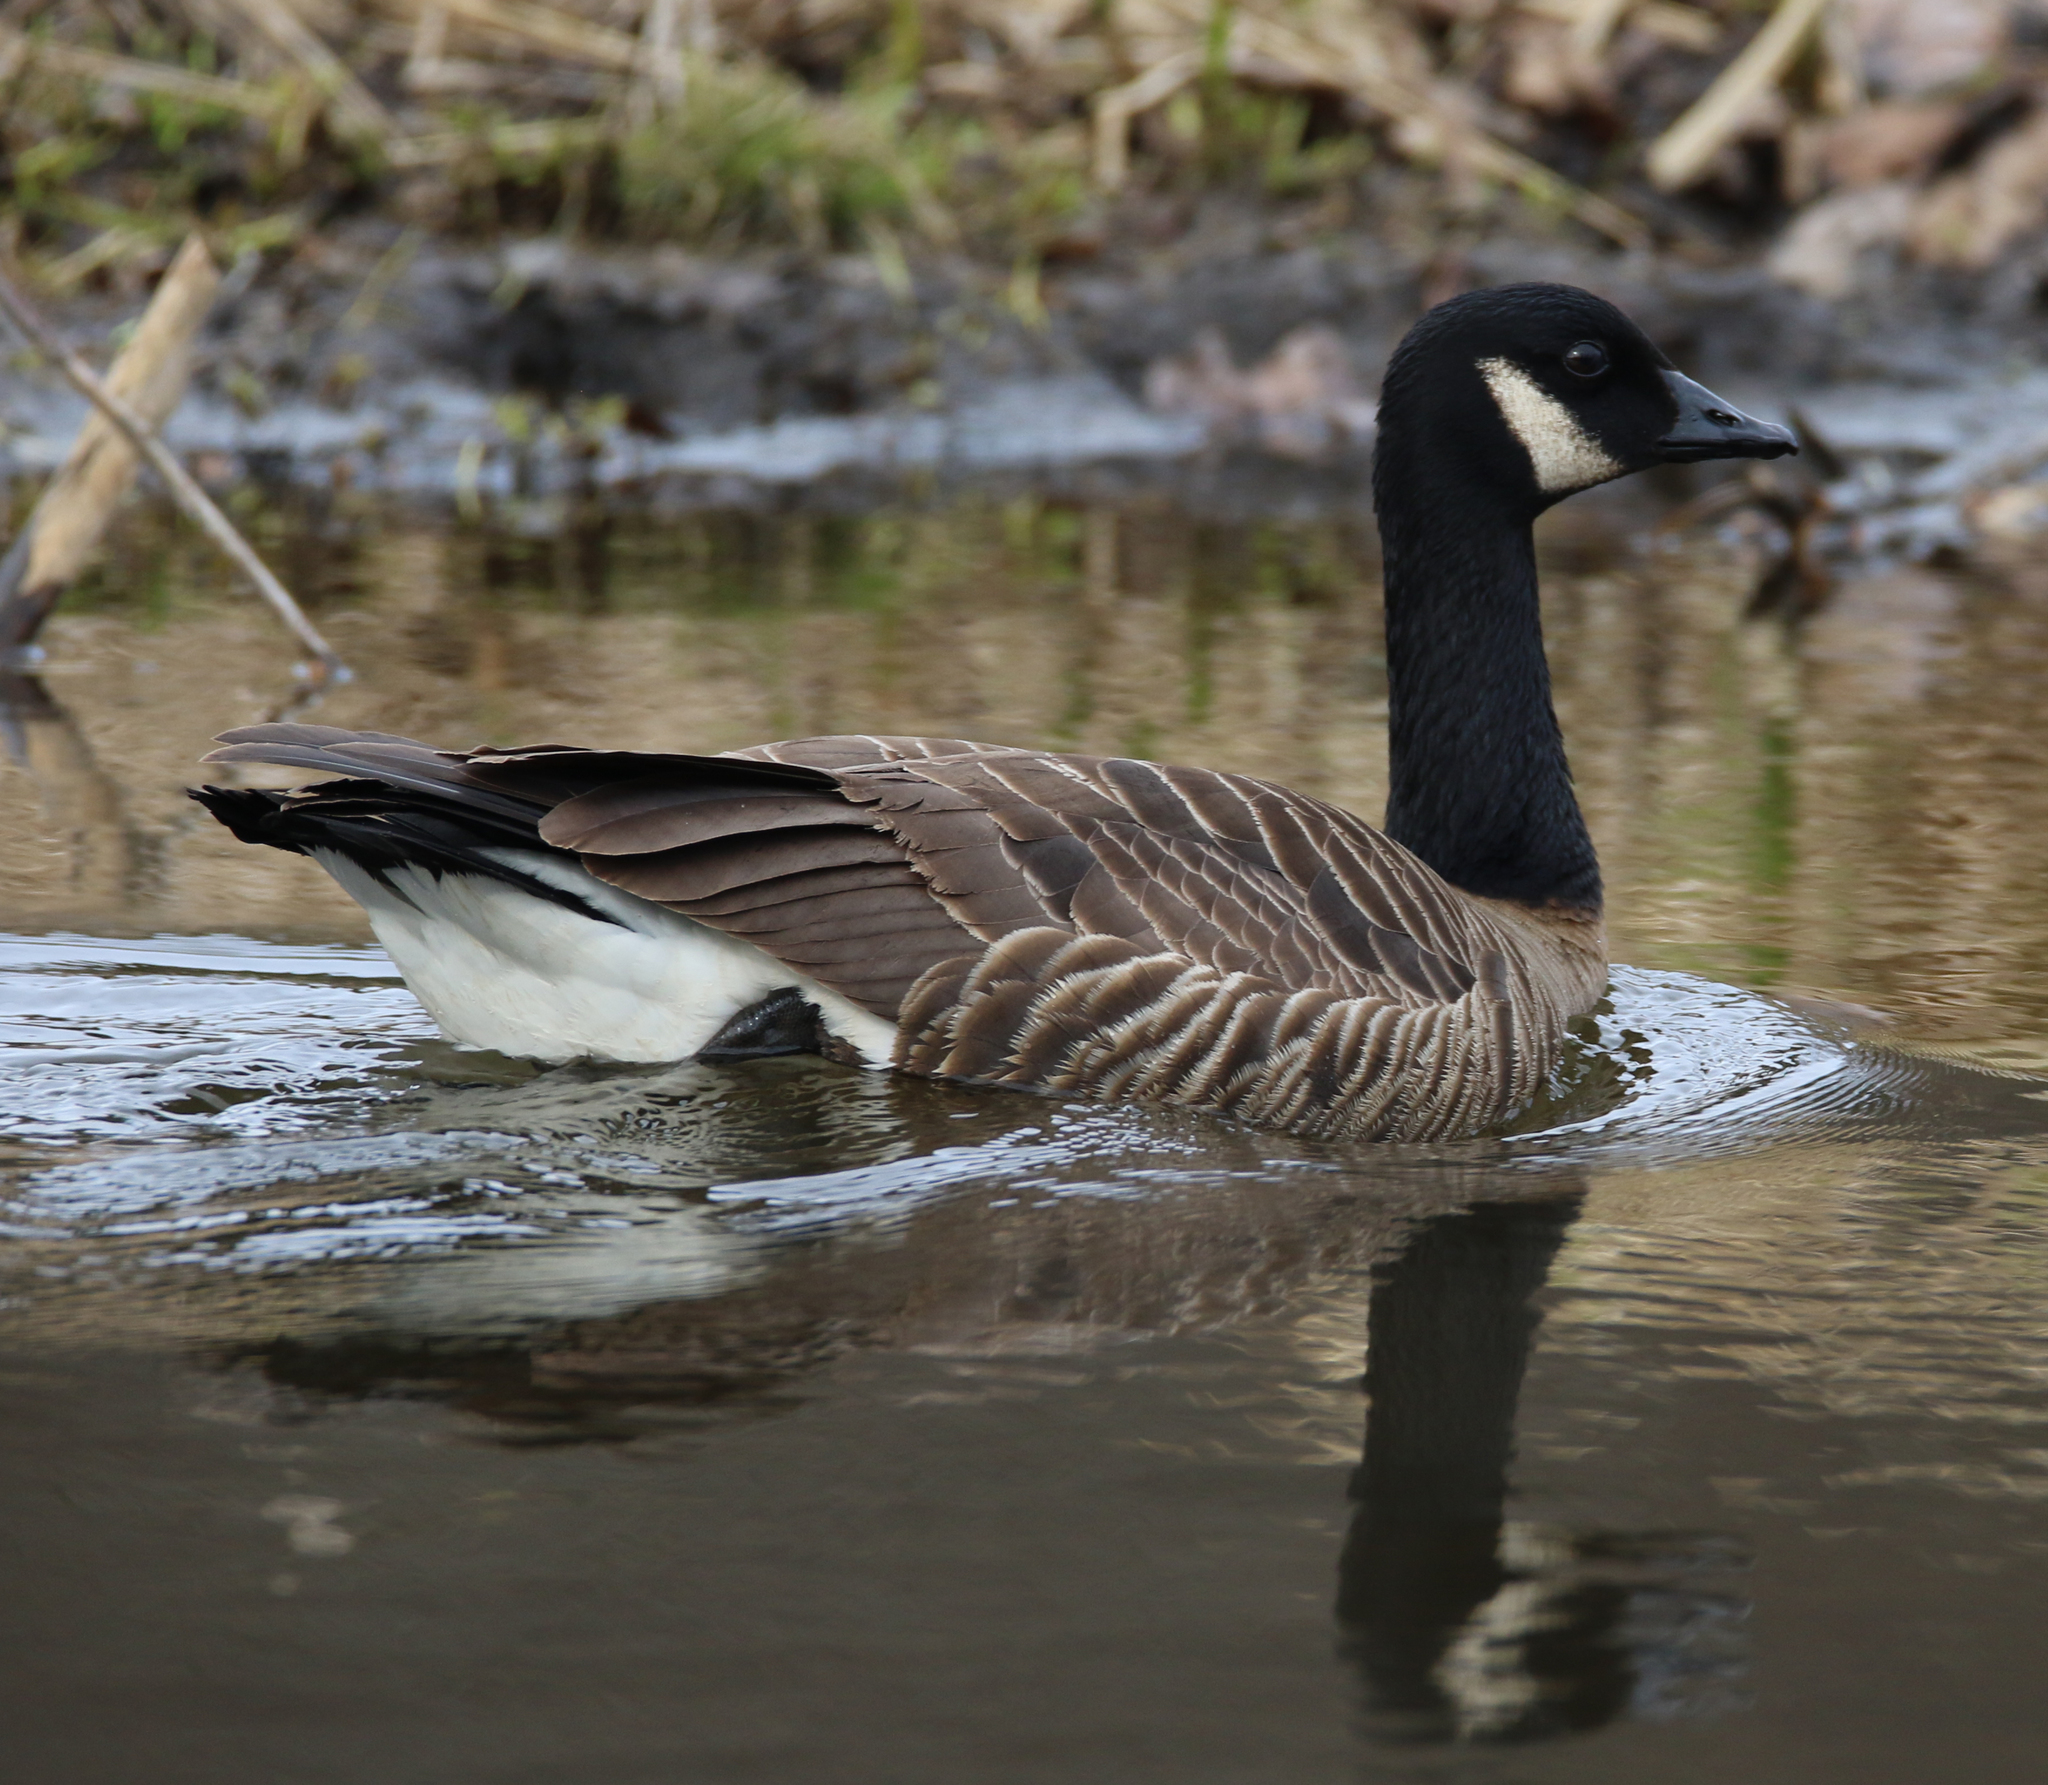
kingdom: Animalia
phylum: Chordata
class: Aves
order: Anseriformes
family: Anatidae
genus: Branta
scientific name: Branta canadensis
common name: Canada goose
